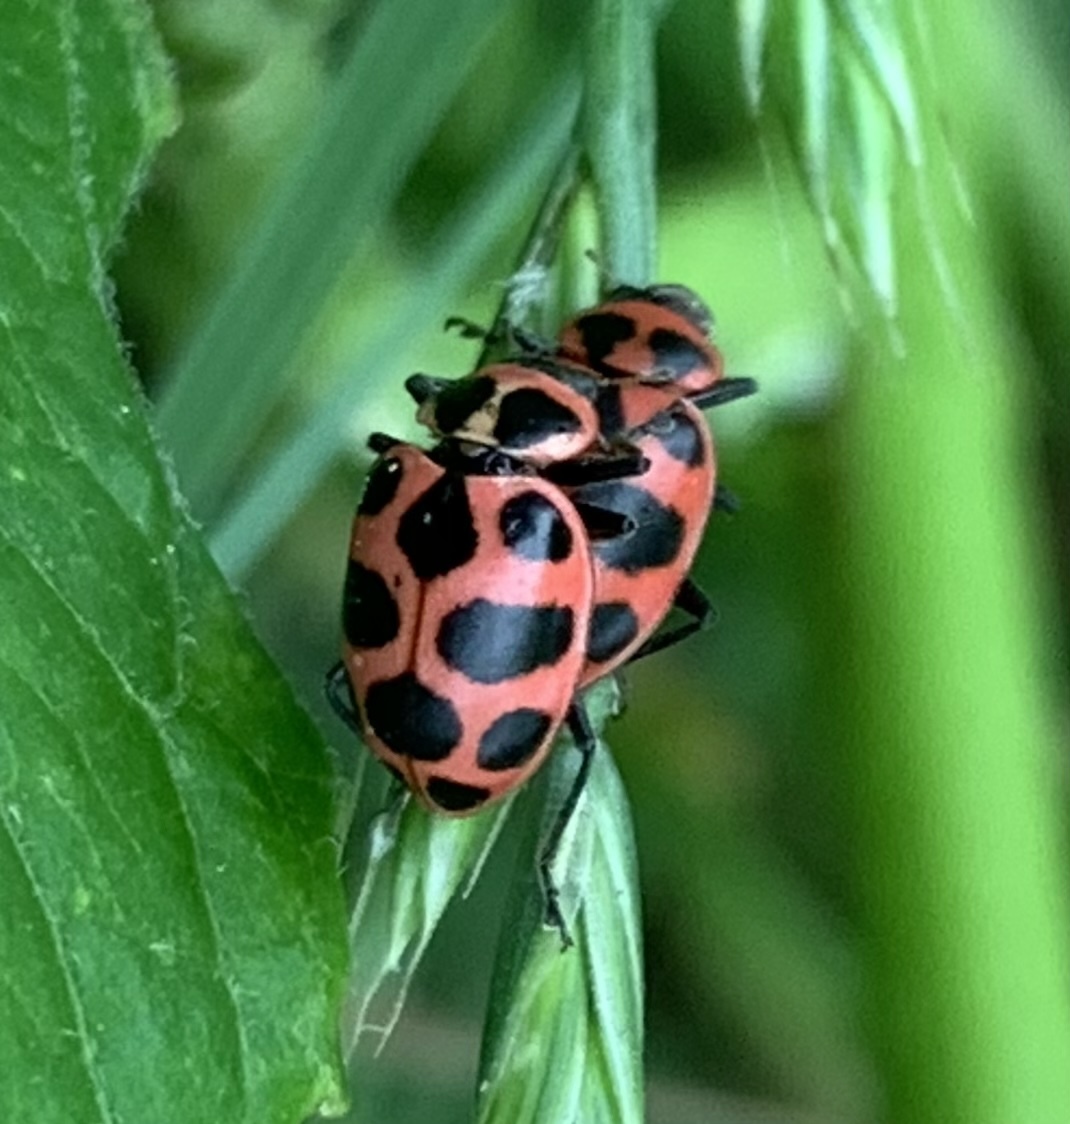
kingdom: Animalia
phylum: Arthropoda
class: Insecta
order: Coleoptera
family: Coccinellidae
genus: Coleomegilla
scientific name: Coleomegilla maculata
